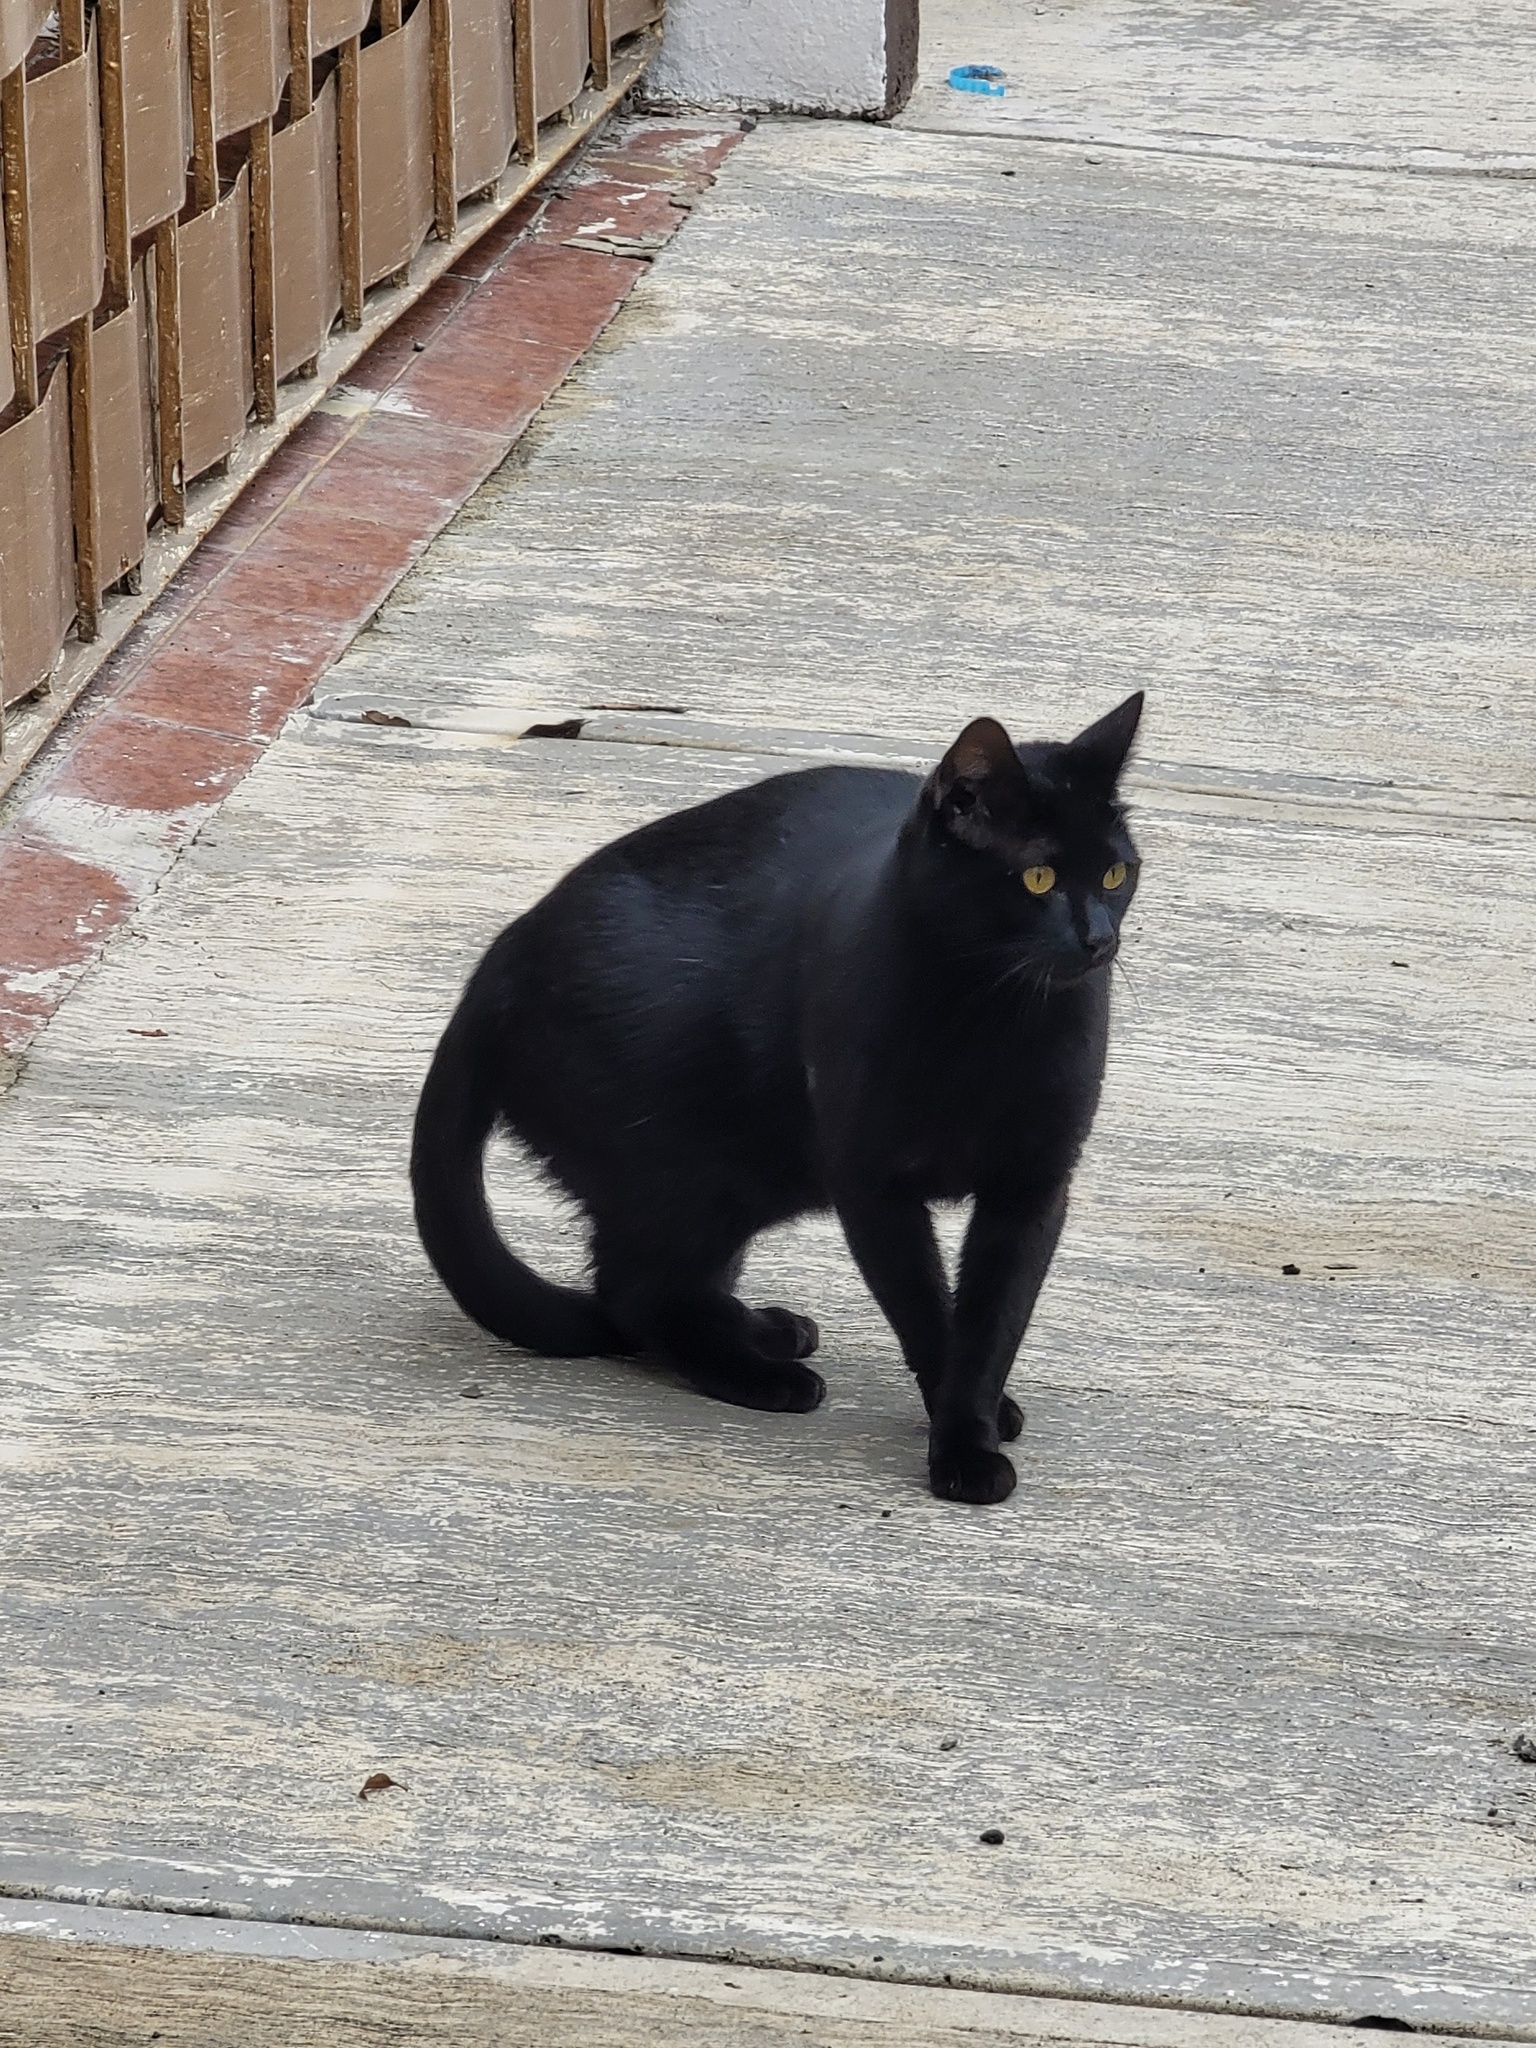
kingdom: Animalia
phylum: Chordata
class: Mammalia
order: Carnivora
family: Felidae
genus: Felis
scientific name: Felis catus
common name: Domestic cat
